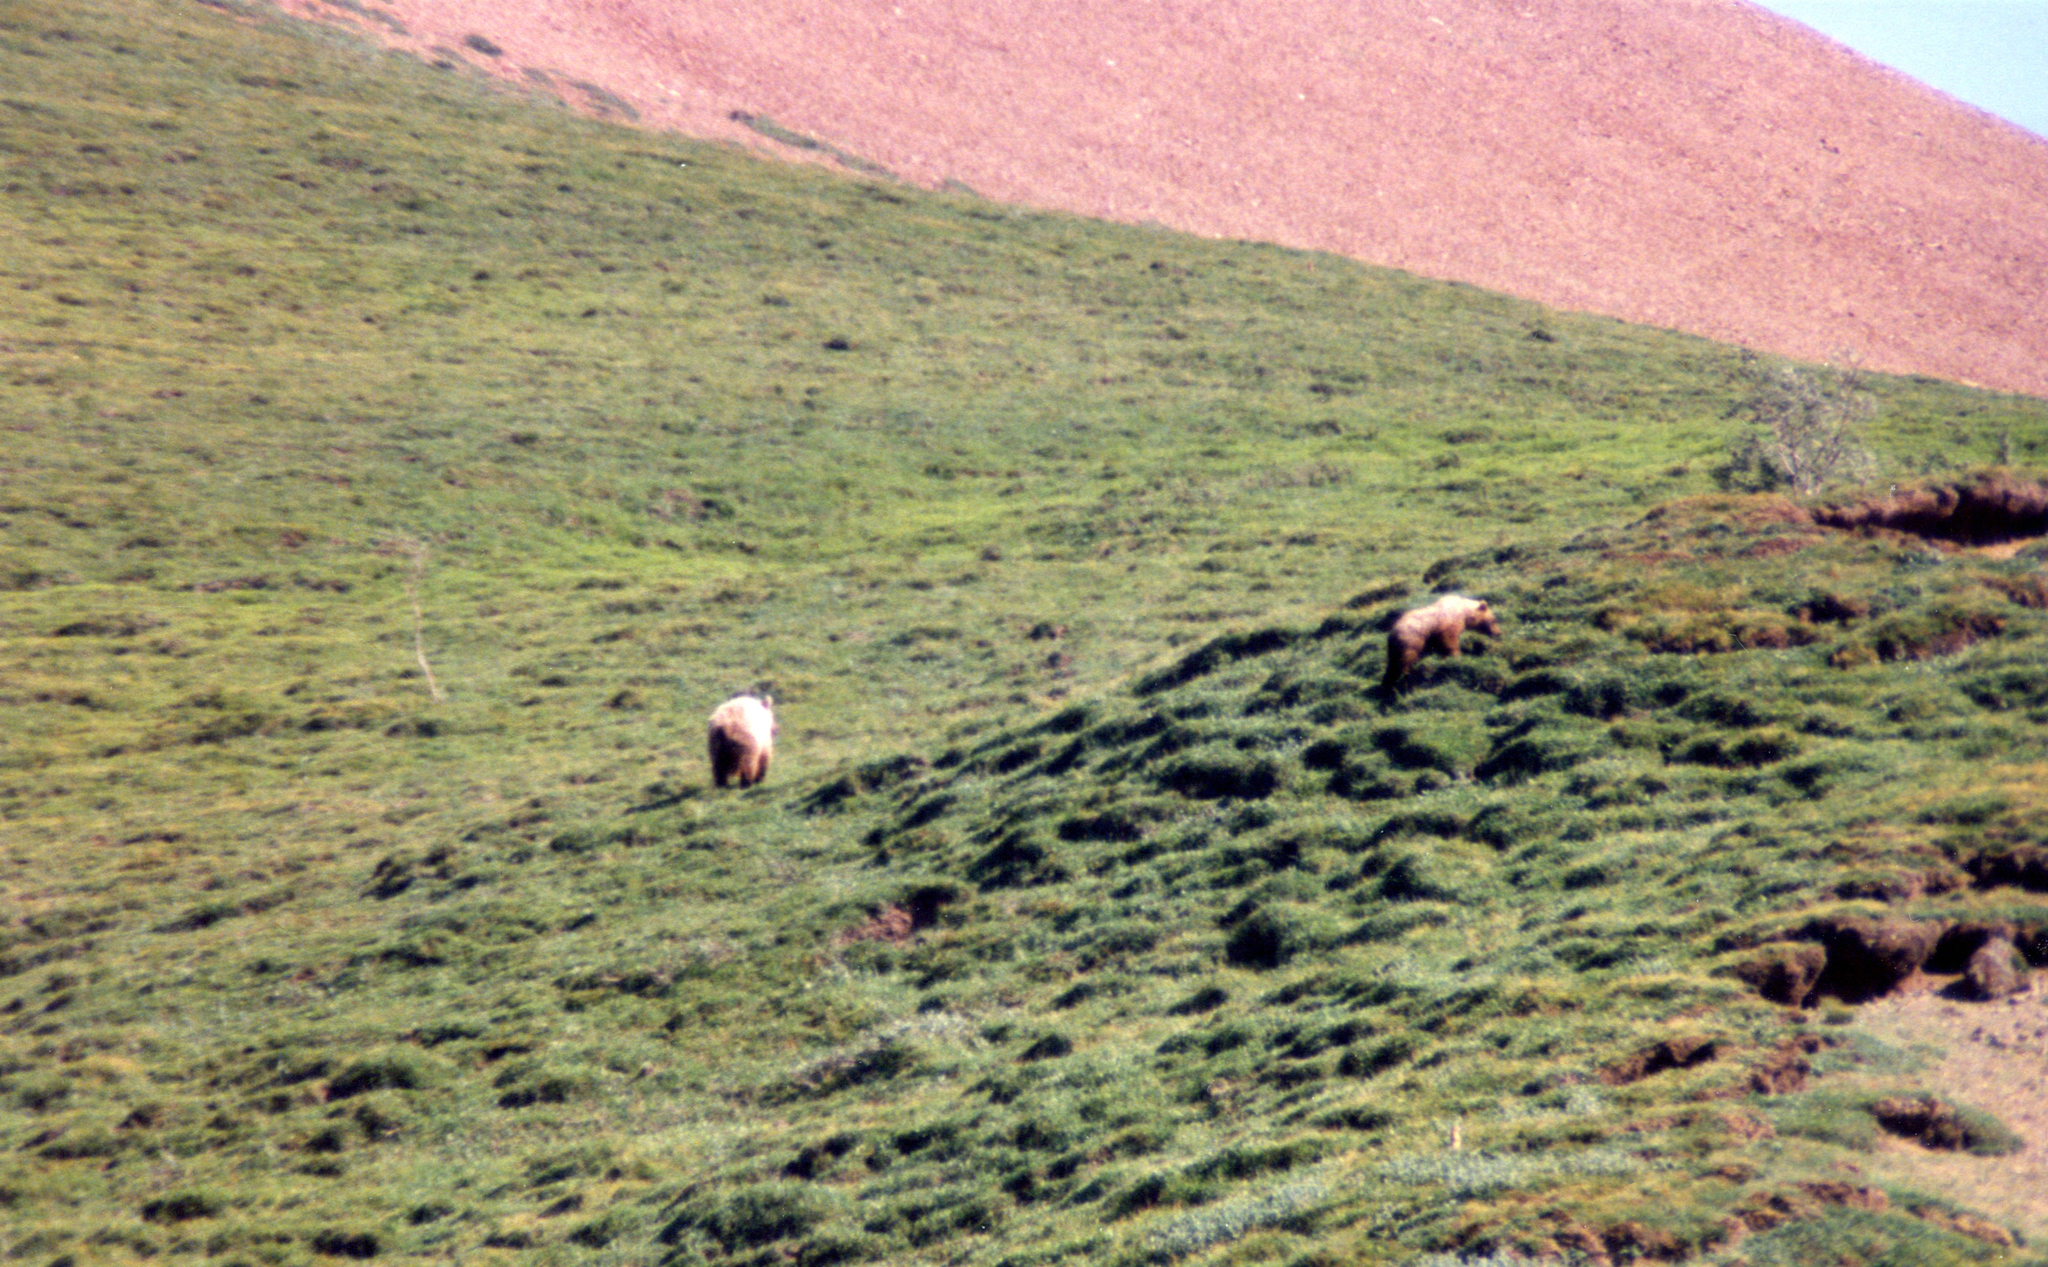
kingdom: Animalia
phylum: Chordata
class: Mammalia
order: Carnivora
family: Ursidae
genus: Ursus
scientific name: Ursus arctos
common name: Brown bear
